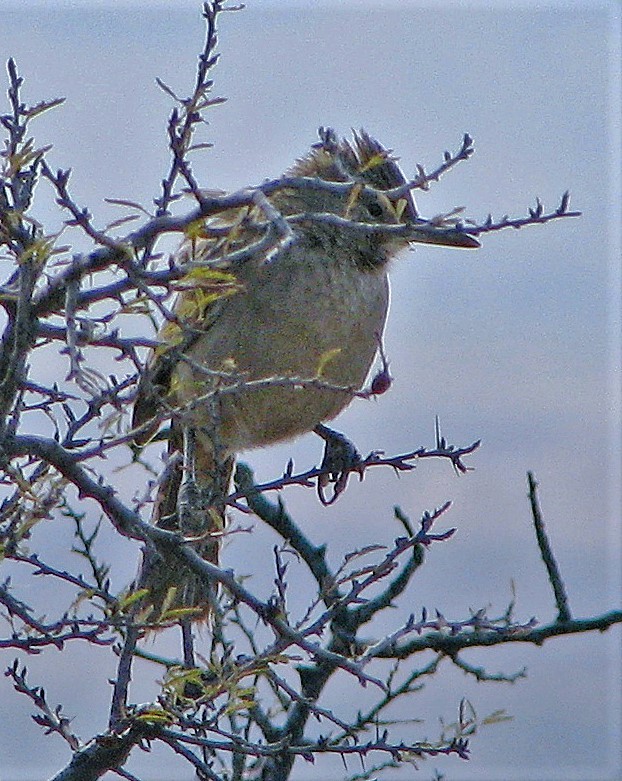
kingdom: Animalia
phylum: Chordata
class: Aves
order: Passeriformes
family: Furnariidae
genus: Pseudoseisura
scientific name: Pseudoseisura gutturalis
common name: White-throated cacholote
